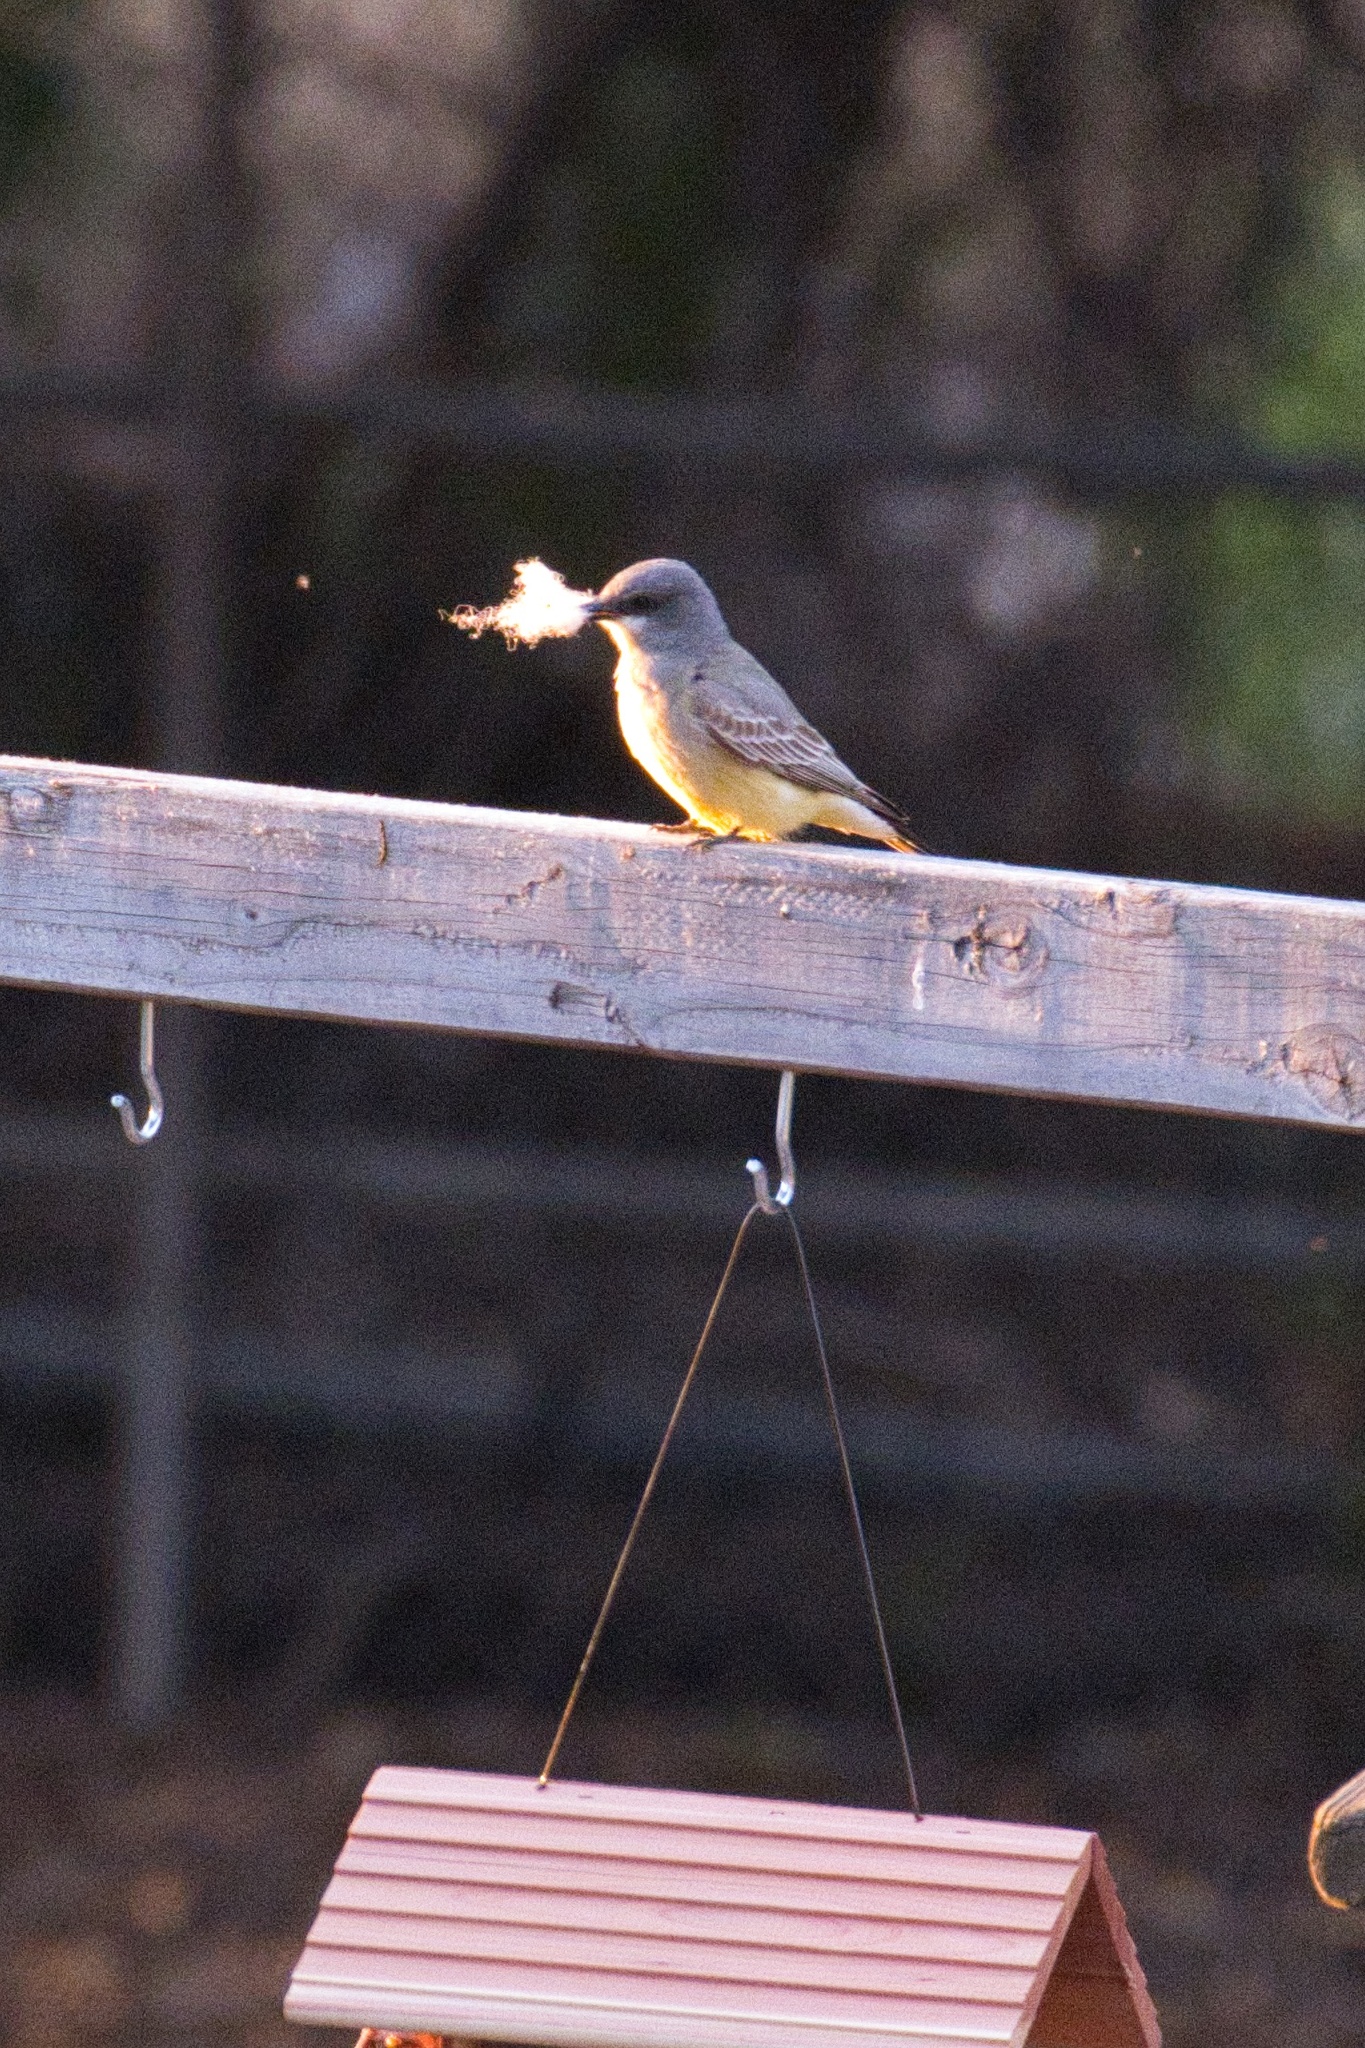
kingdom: Animalia
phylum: Chordata
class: Aves
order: Passeriformes
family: Tyrannidae
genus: Tyrannus
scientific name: Tyrannus vociferans
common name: Cassin's kingbird
